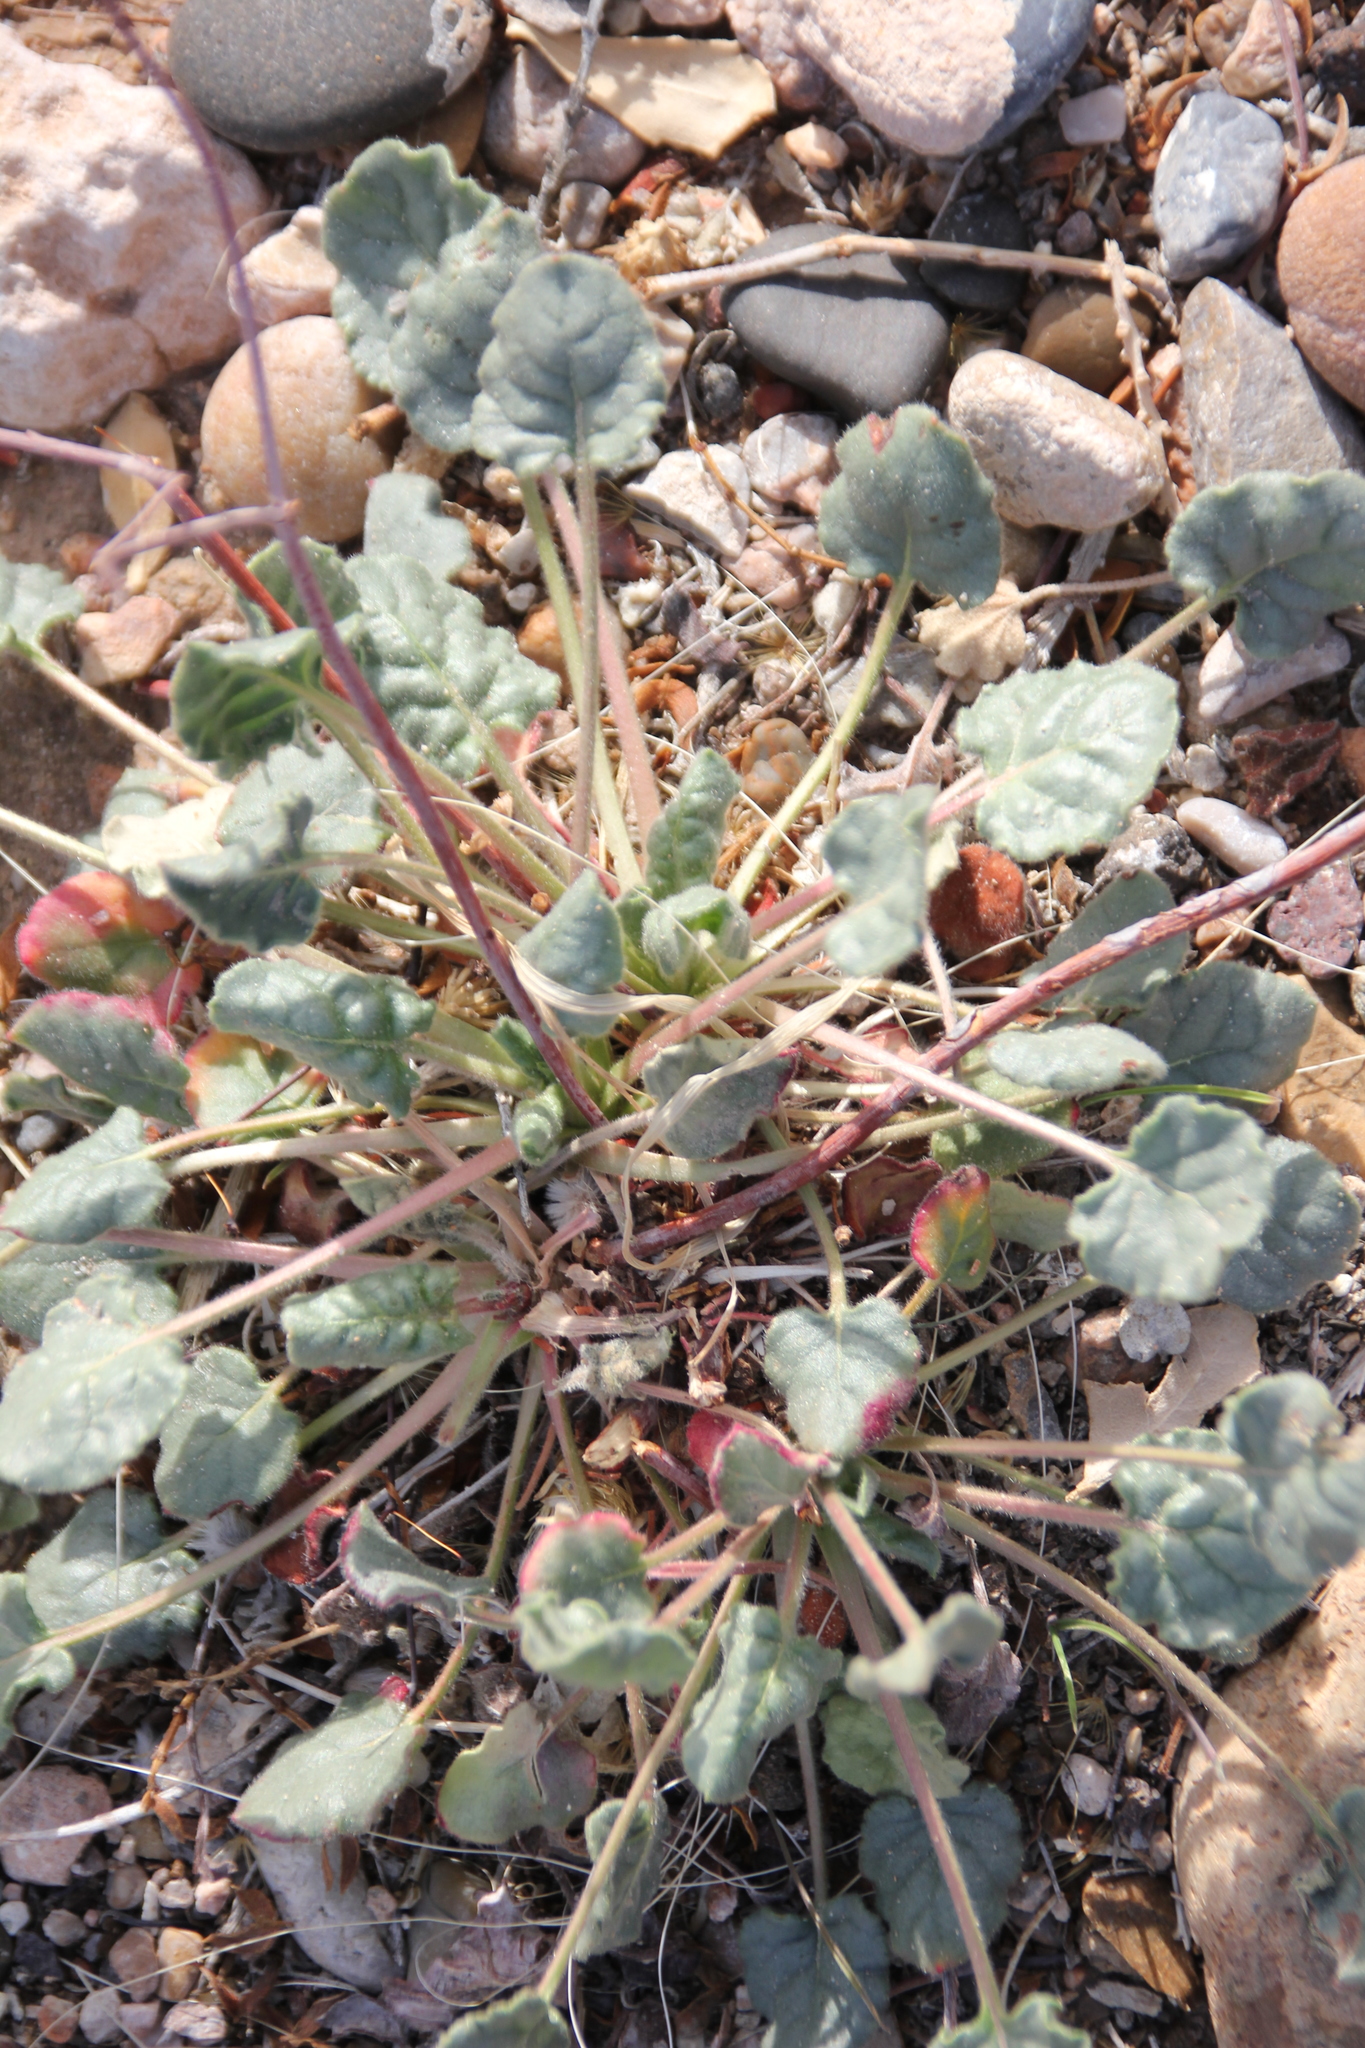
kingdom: Plantae
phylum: Tracheophyta
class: Magnoliopsida
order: Caryophyllales
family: Polygonaceae
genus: Eriogonum
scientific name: Eriogonum inflatum
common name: Desert trumpet
